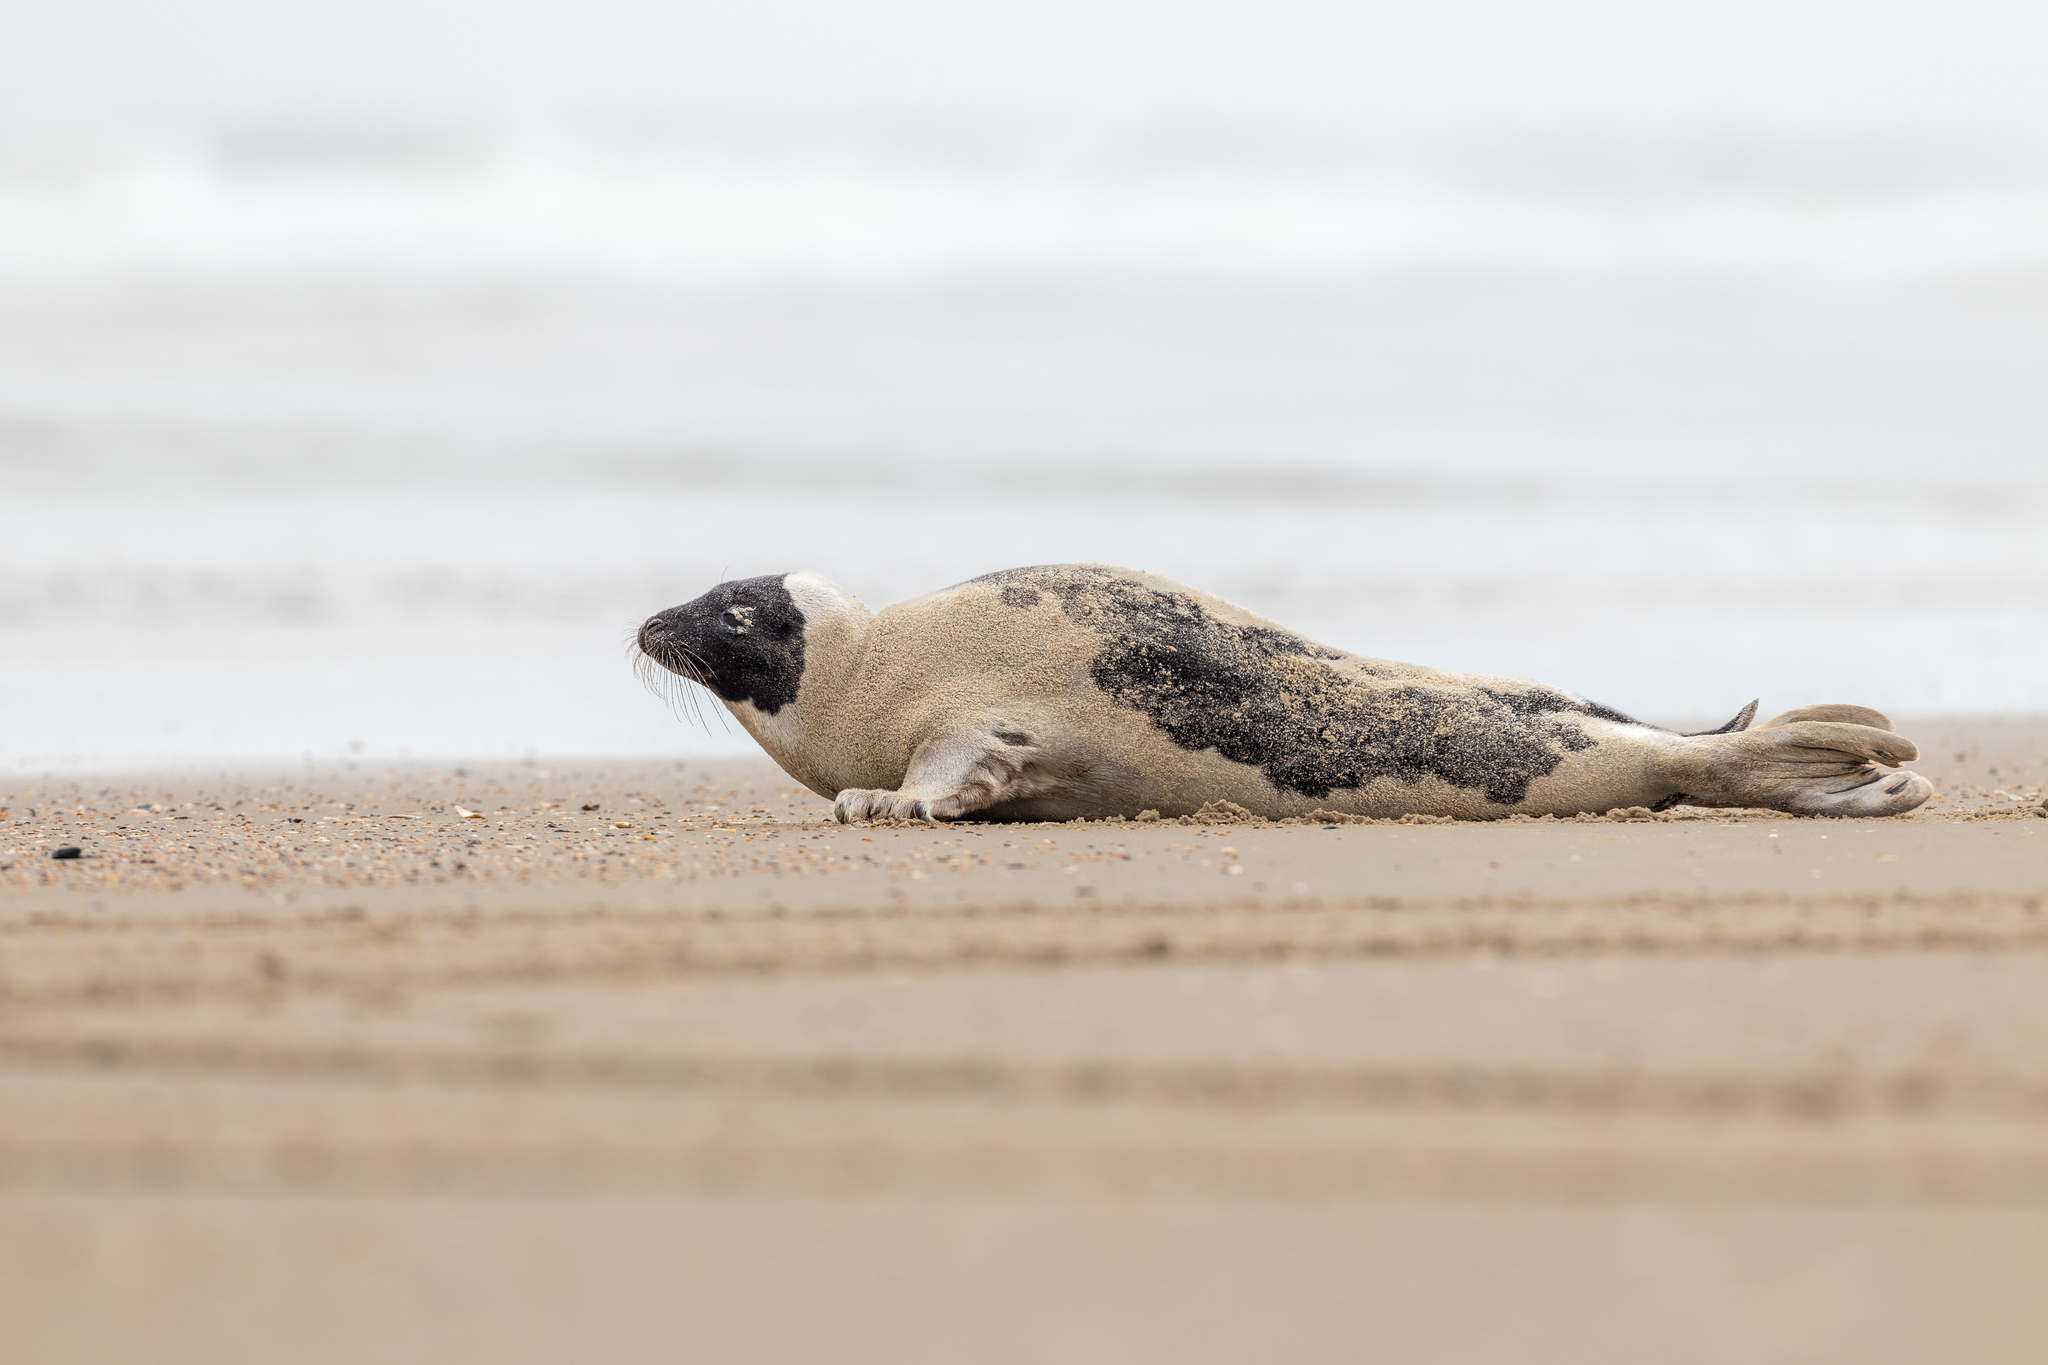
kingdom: Animalia
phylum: Chordata
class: Mammalia
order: Carnivora
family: Phocidae
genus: Pagophilus
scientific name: Pagophilus groenlandicus
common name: Harp seal
